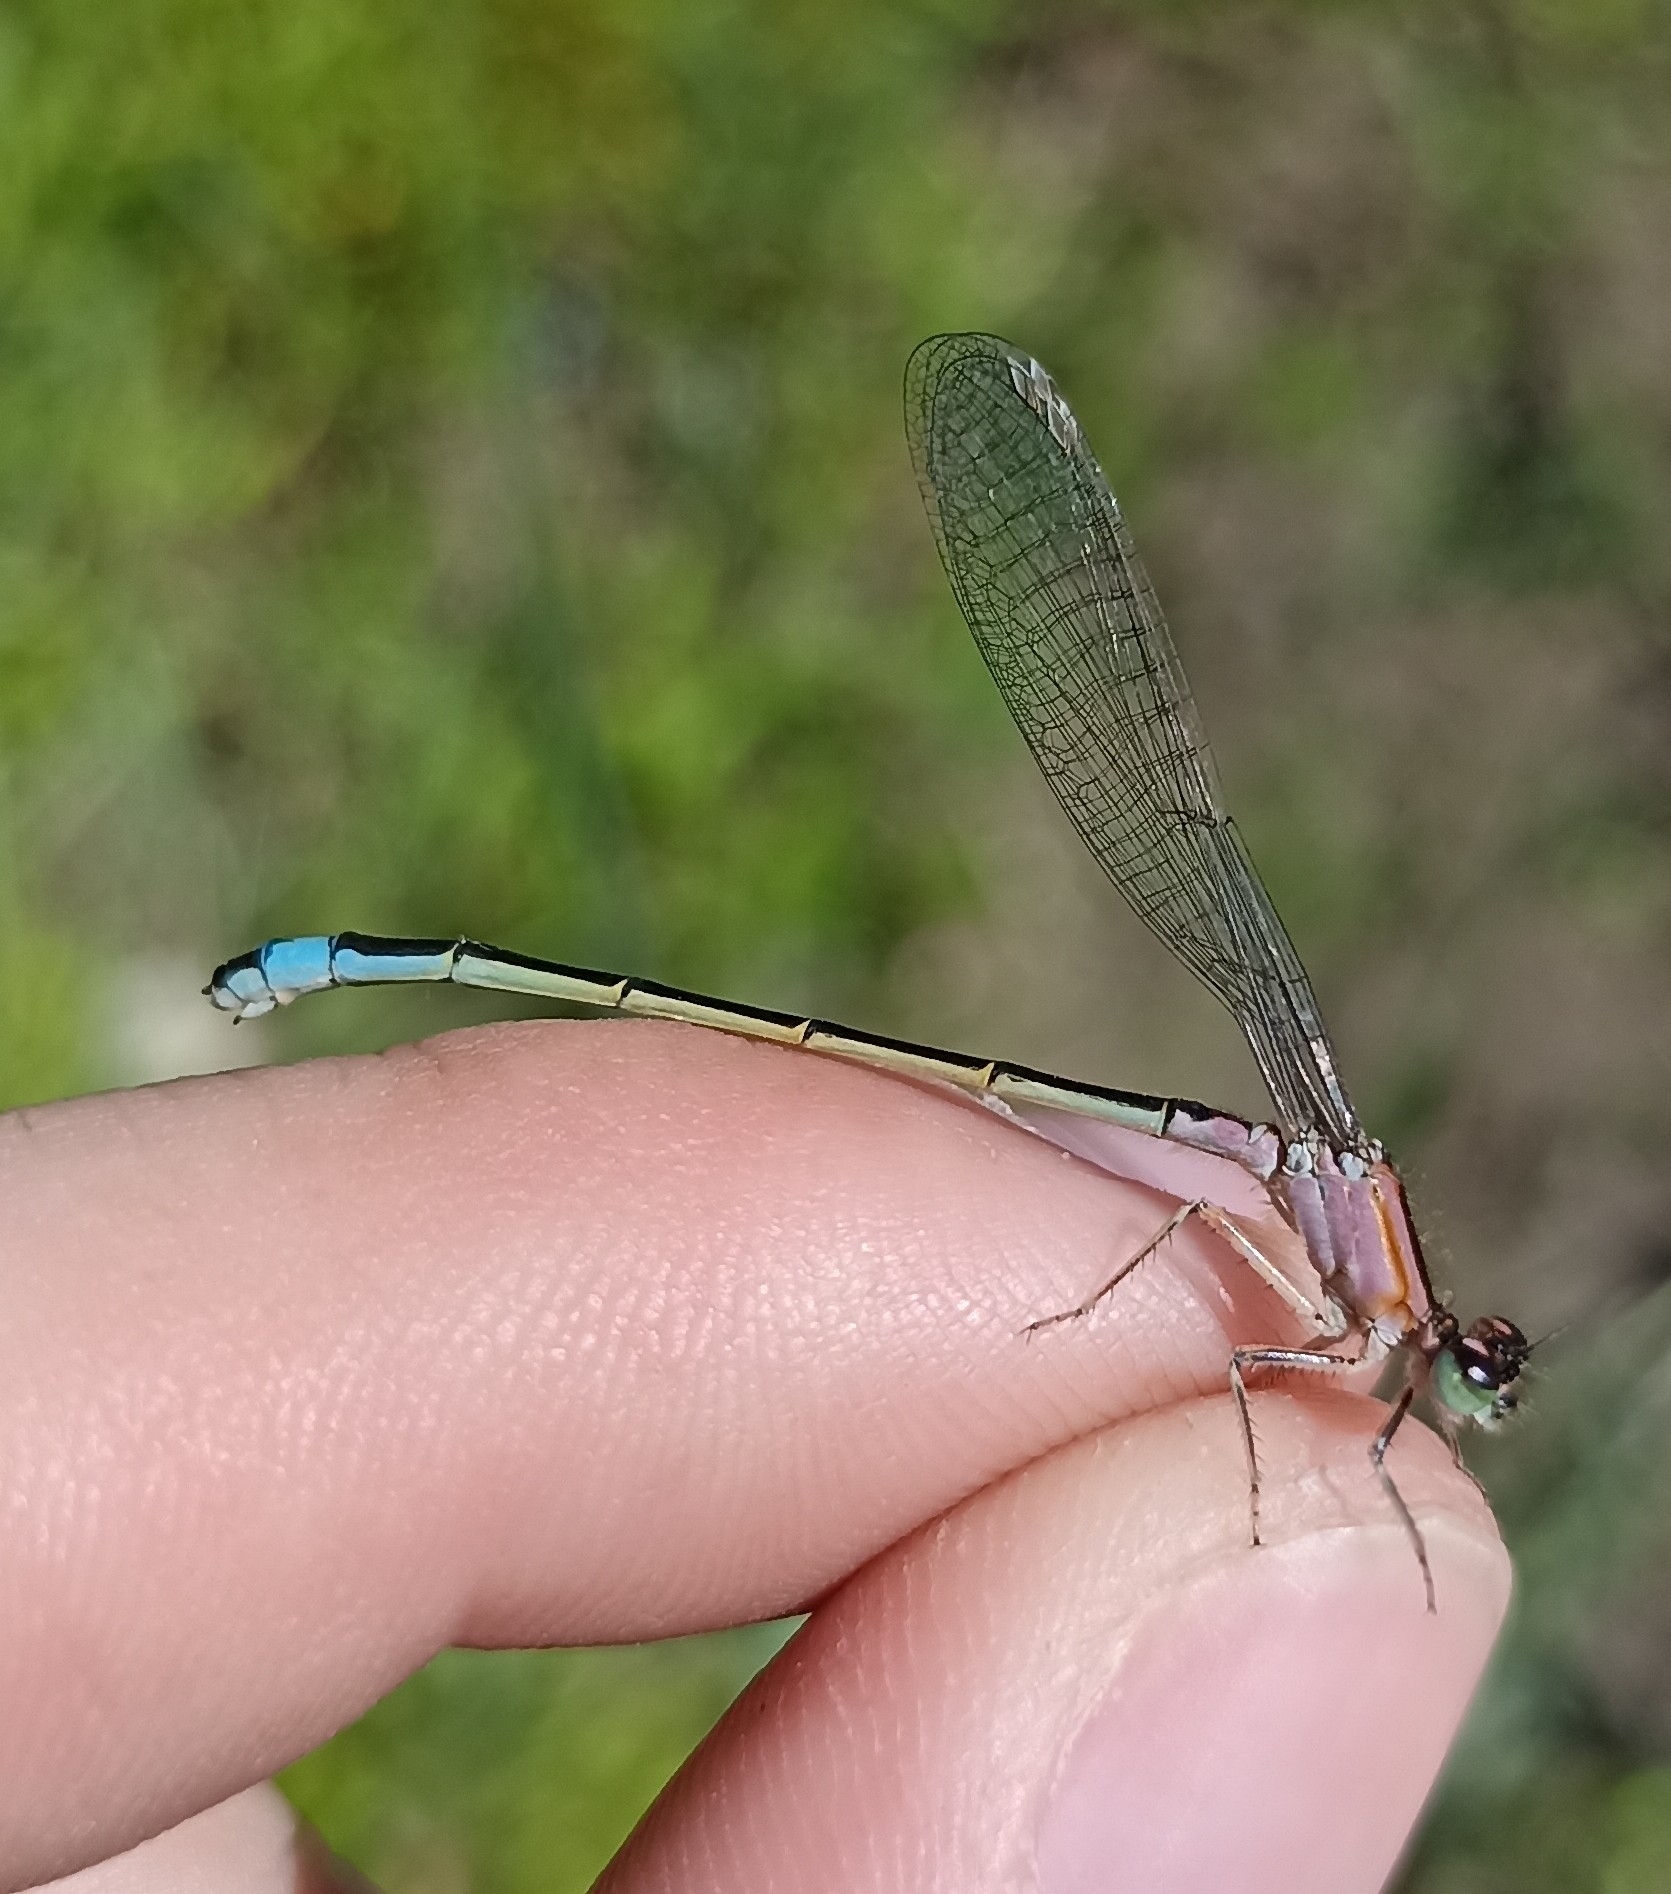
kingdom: Animalia
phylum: Arthropoda
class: Insecta
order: Odonata
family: Coenagrionidae
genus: Ischnura
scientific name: Ischnura elegans
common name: Blue-tailed damselfly
